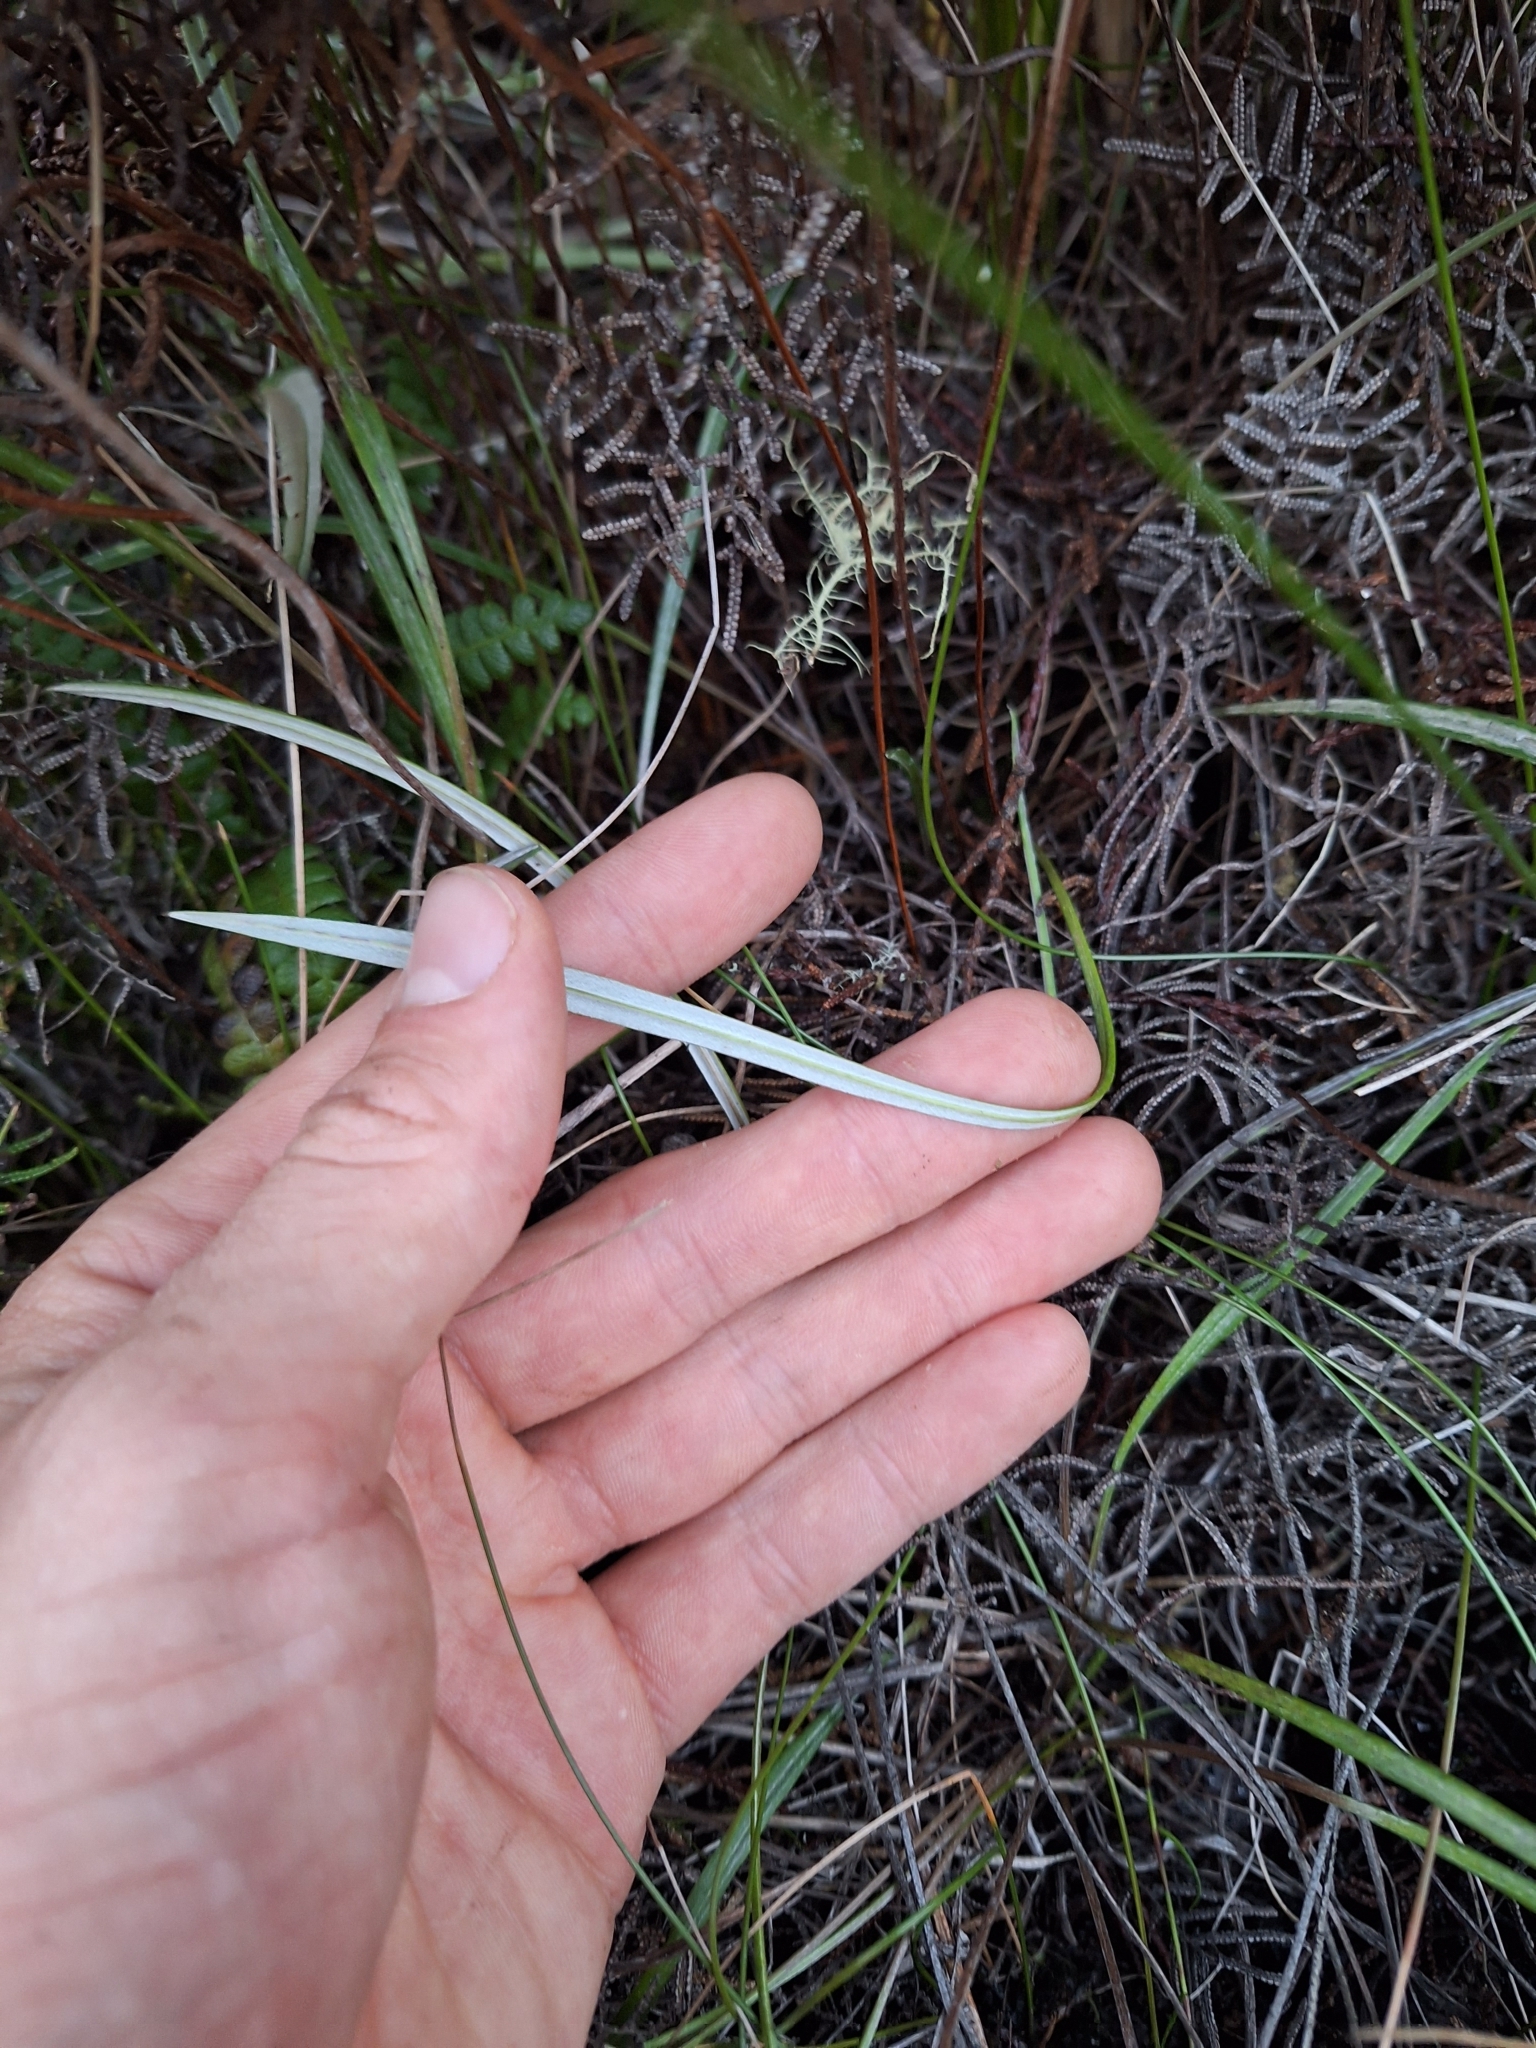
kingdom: Plantae
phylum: Tracheophyta
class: Magnoliopsida
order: Asterales
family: Asteraceae
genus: Celmisia
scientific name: Celmisia gracilenta
